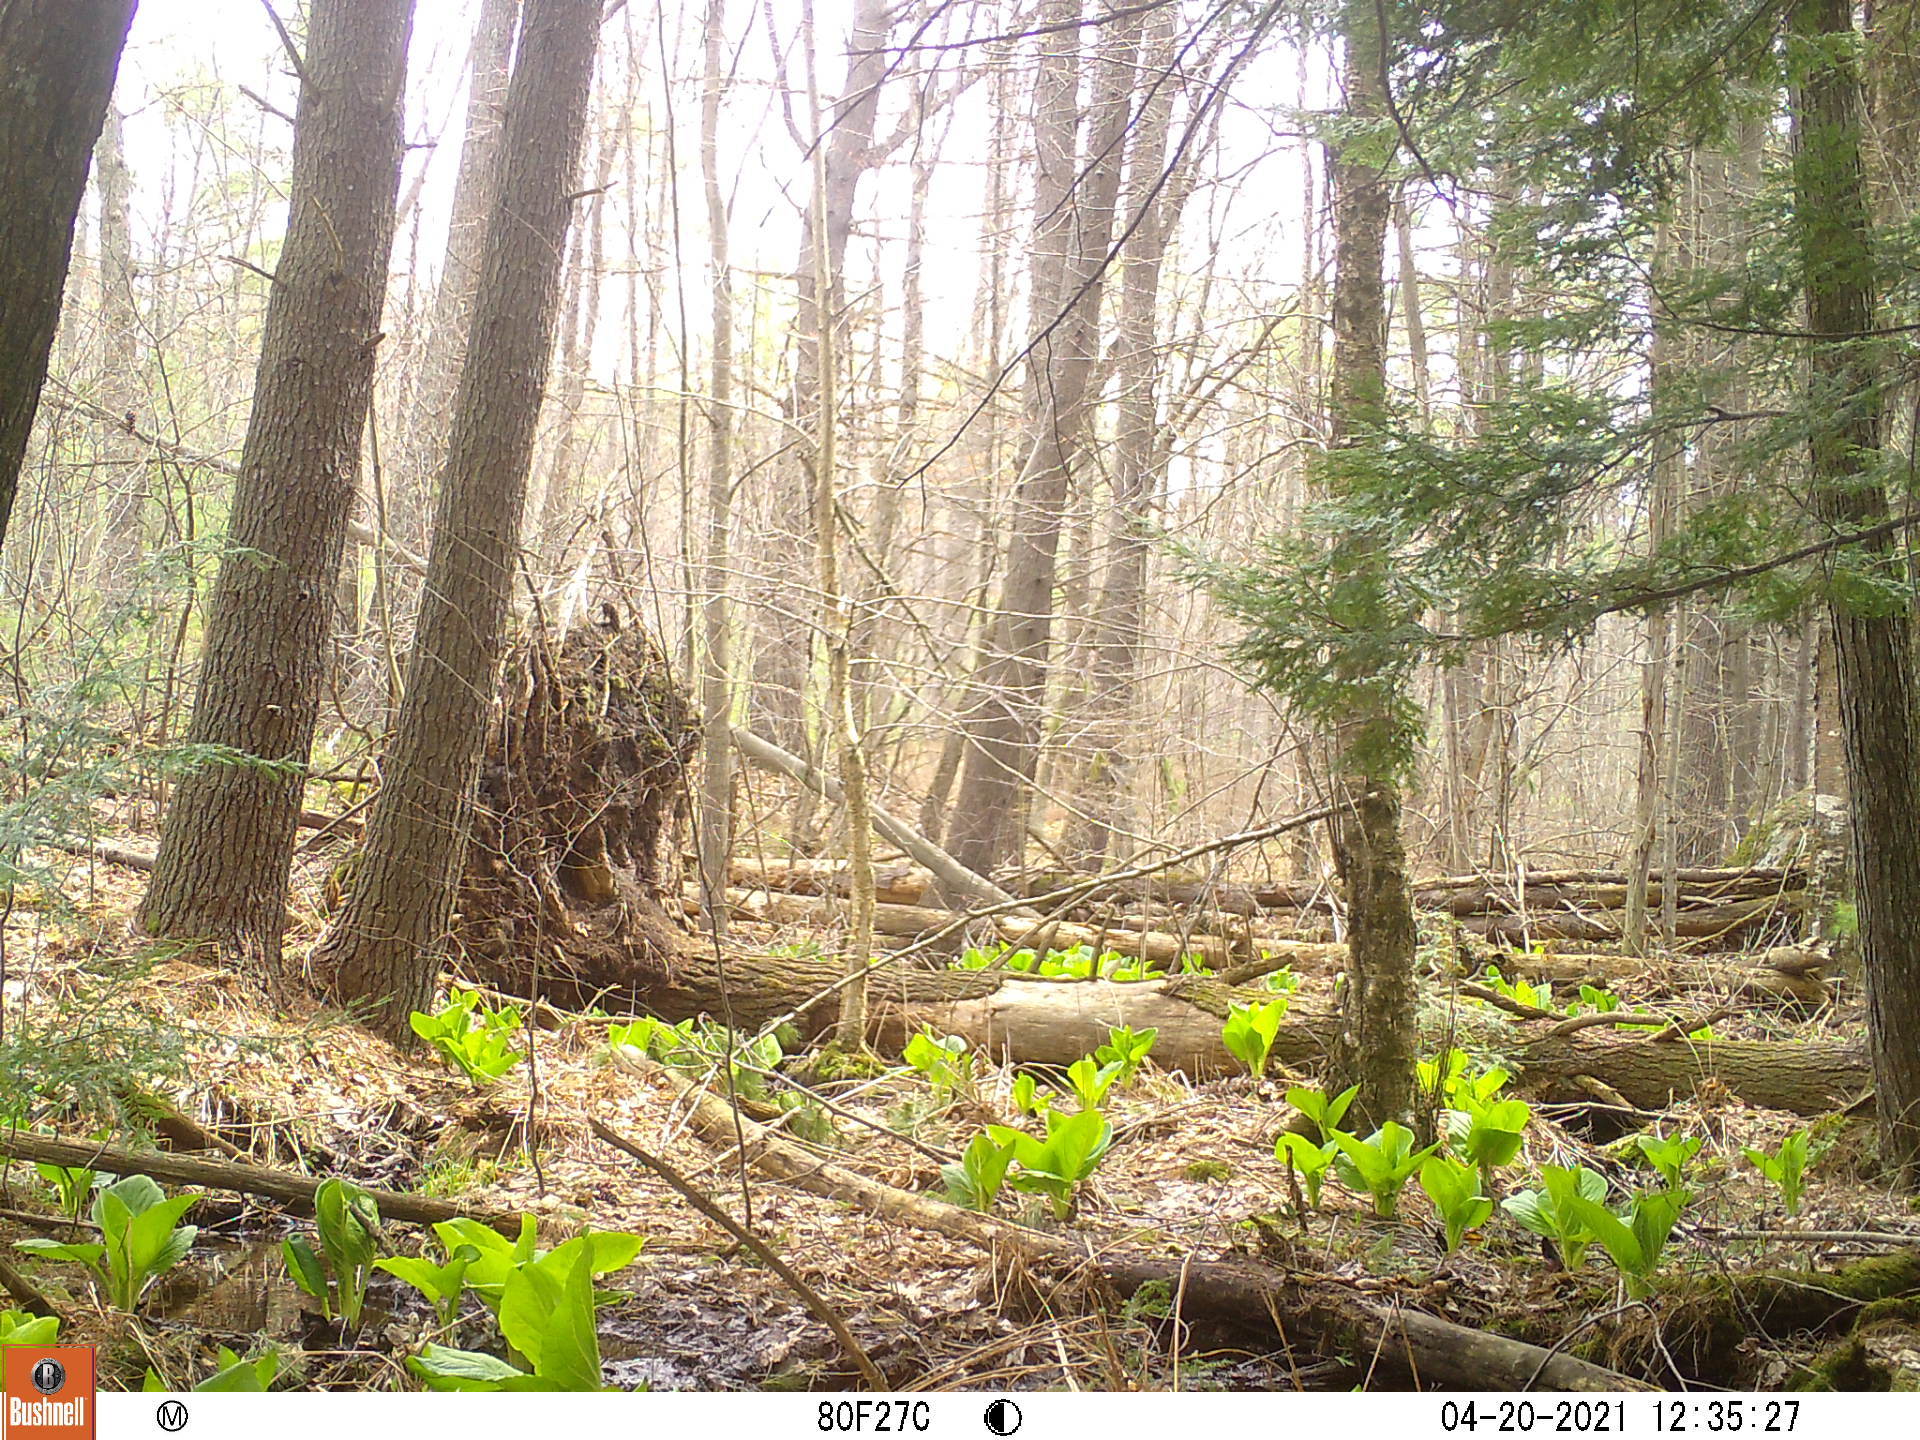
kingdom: Plantae
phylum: Tracheophyta
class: Liliopsida
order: Alismatales
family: Araceae
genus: Symplocarpus
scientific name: Symplocarpus foetidus
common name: Eastern skunk cabbage
